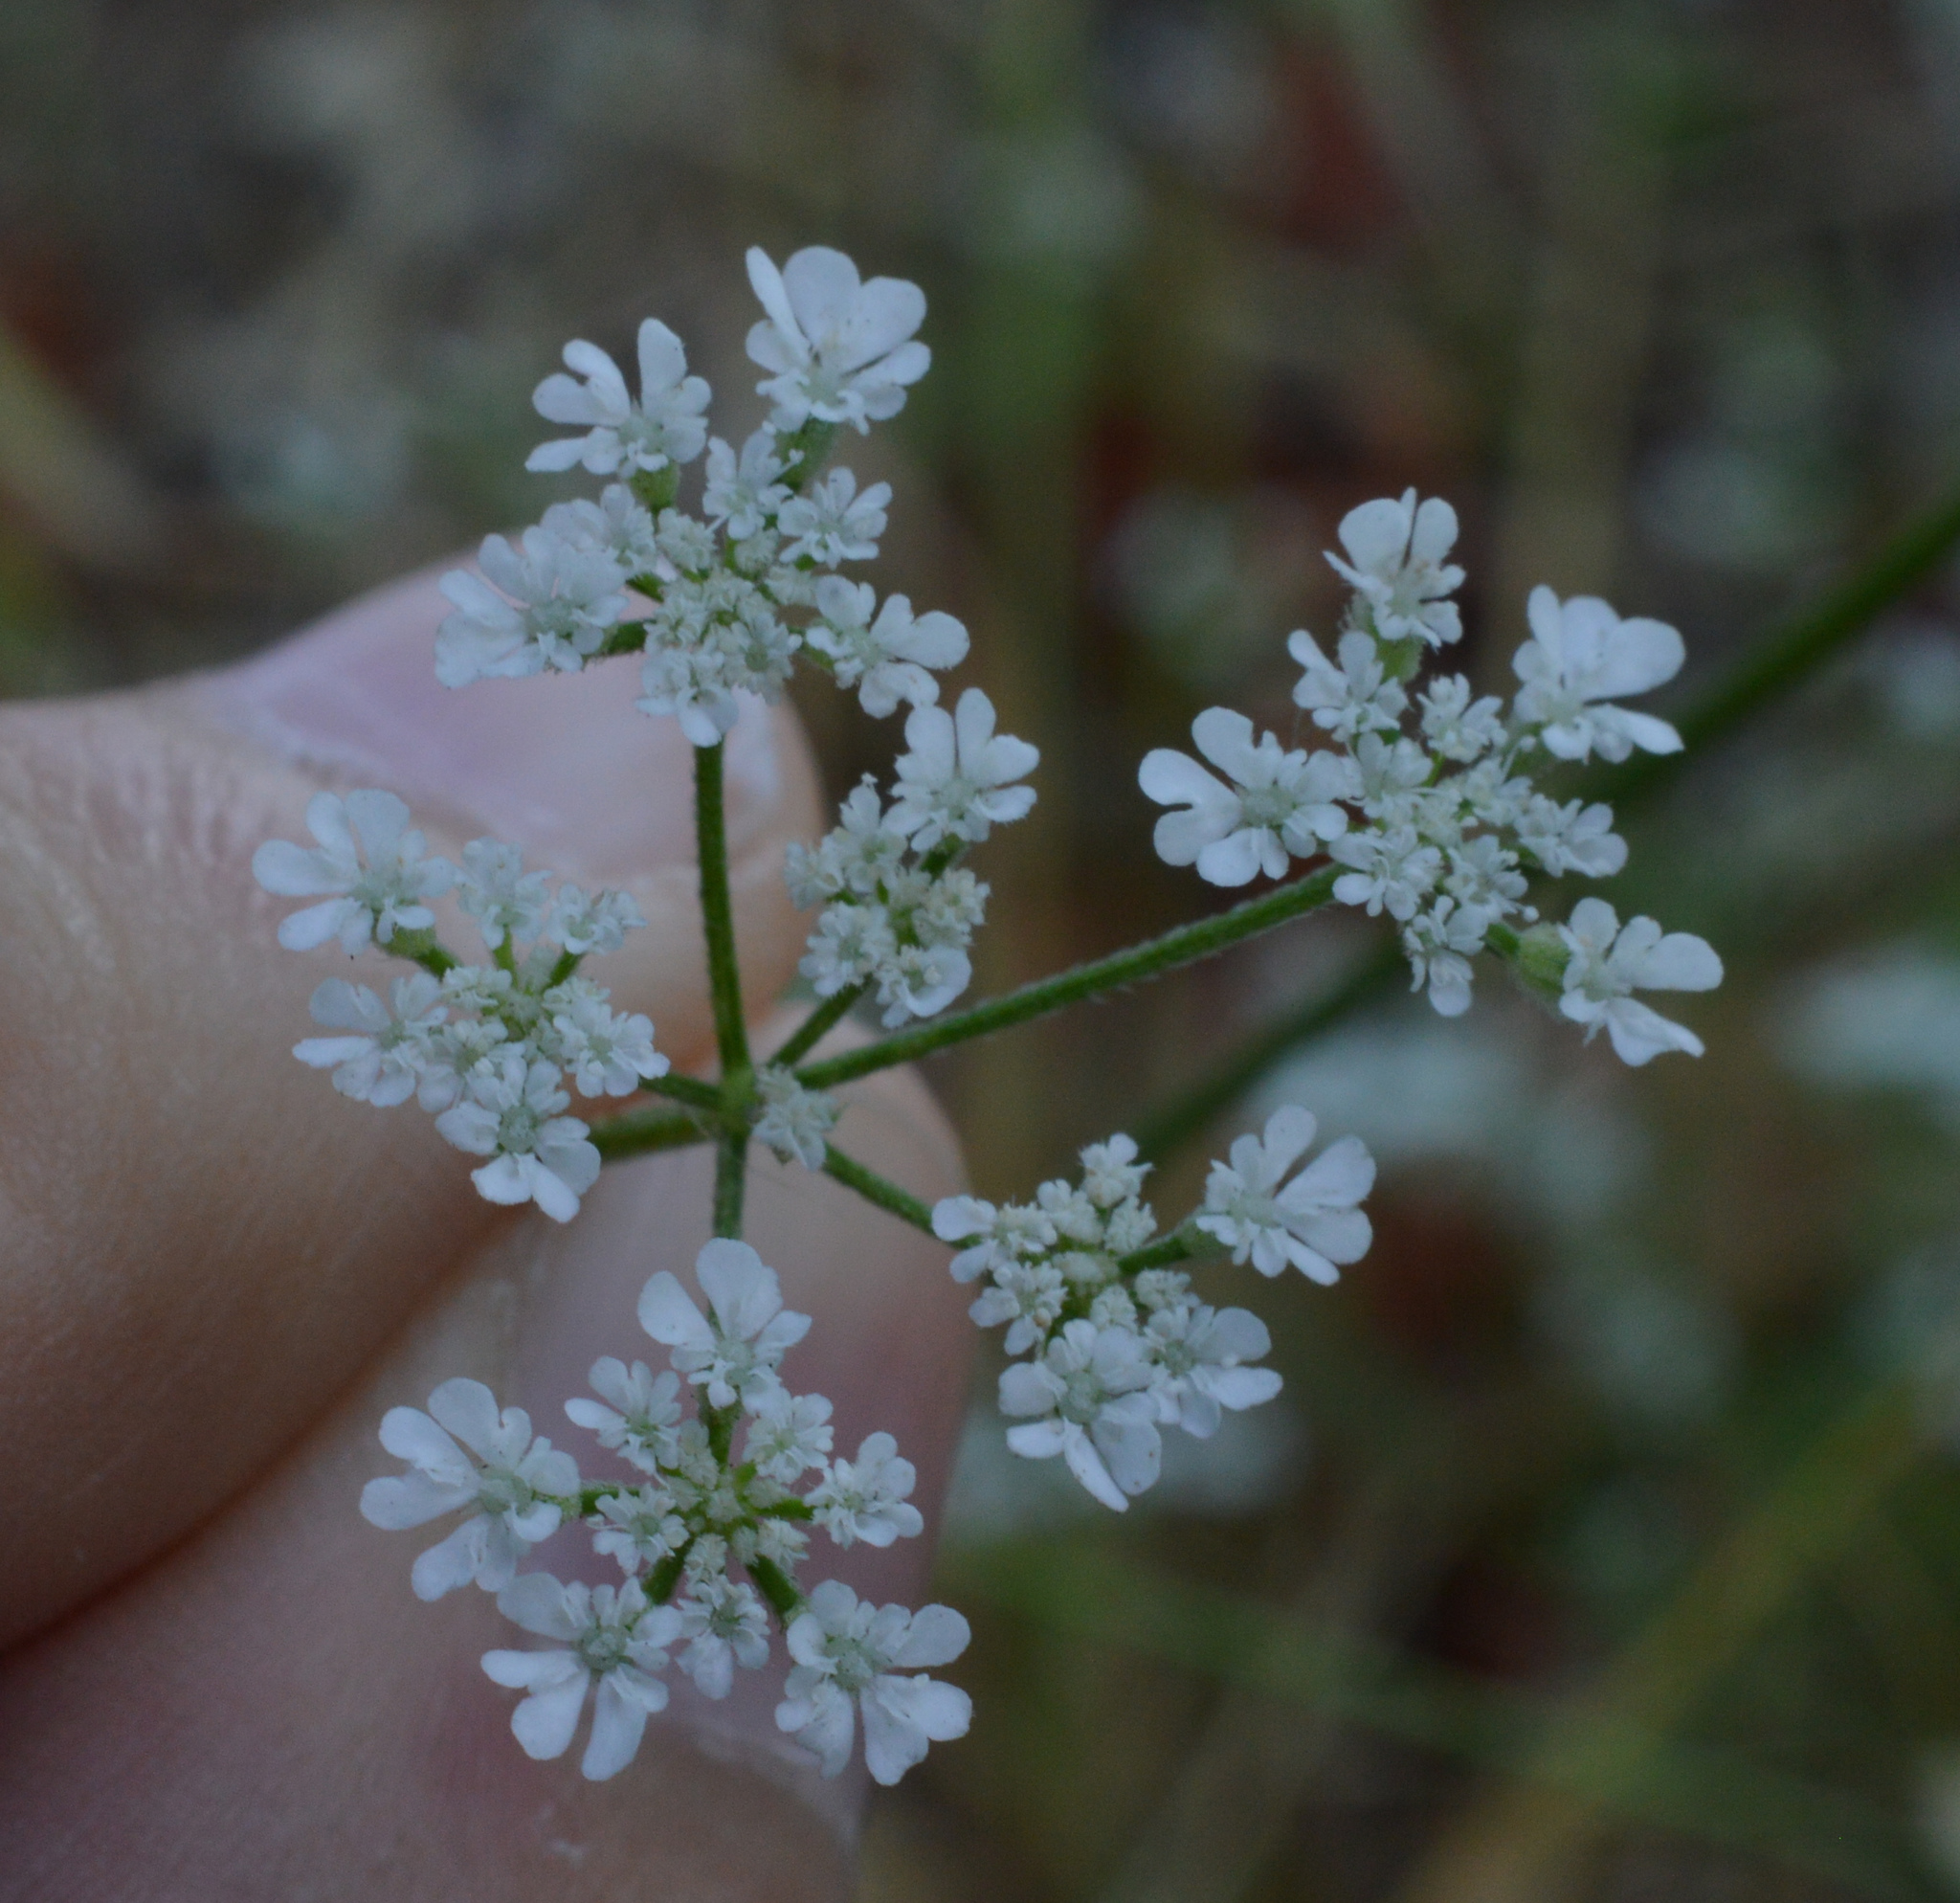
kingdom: Plantae
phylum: Tracheophyta
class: Magnoliopsida
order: Apiales
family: Apiaceae
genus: Torilis
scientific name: Torilis arvensis
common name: Spreading hedge-parsley
